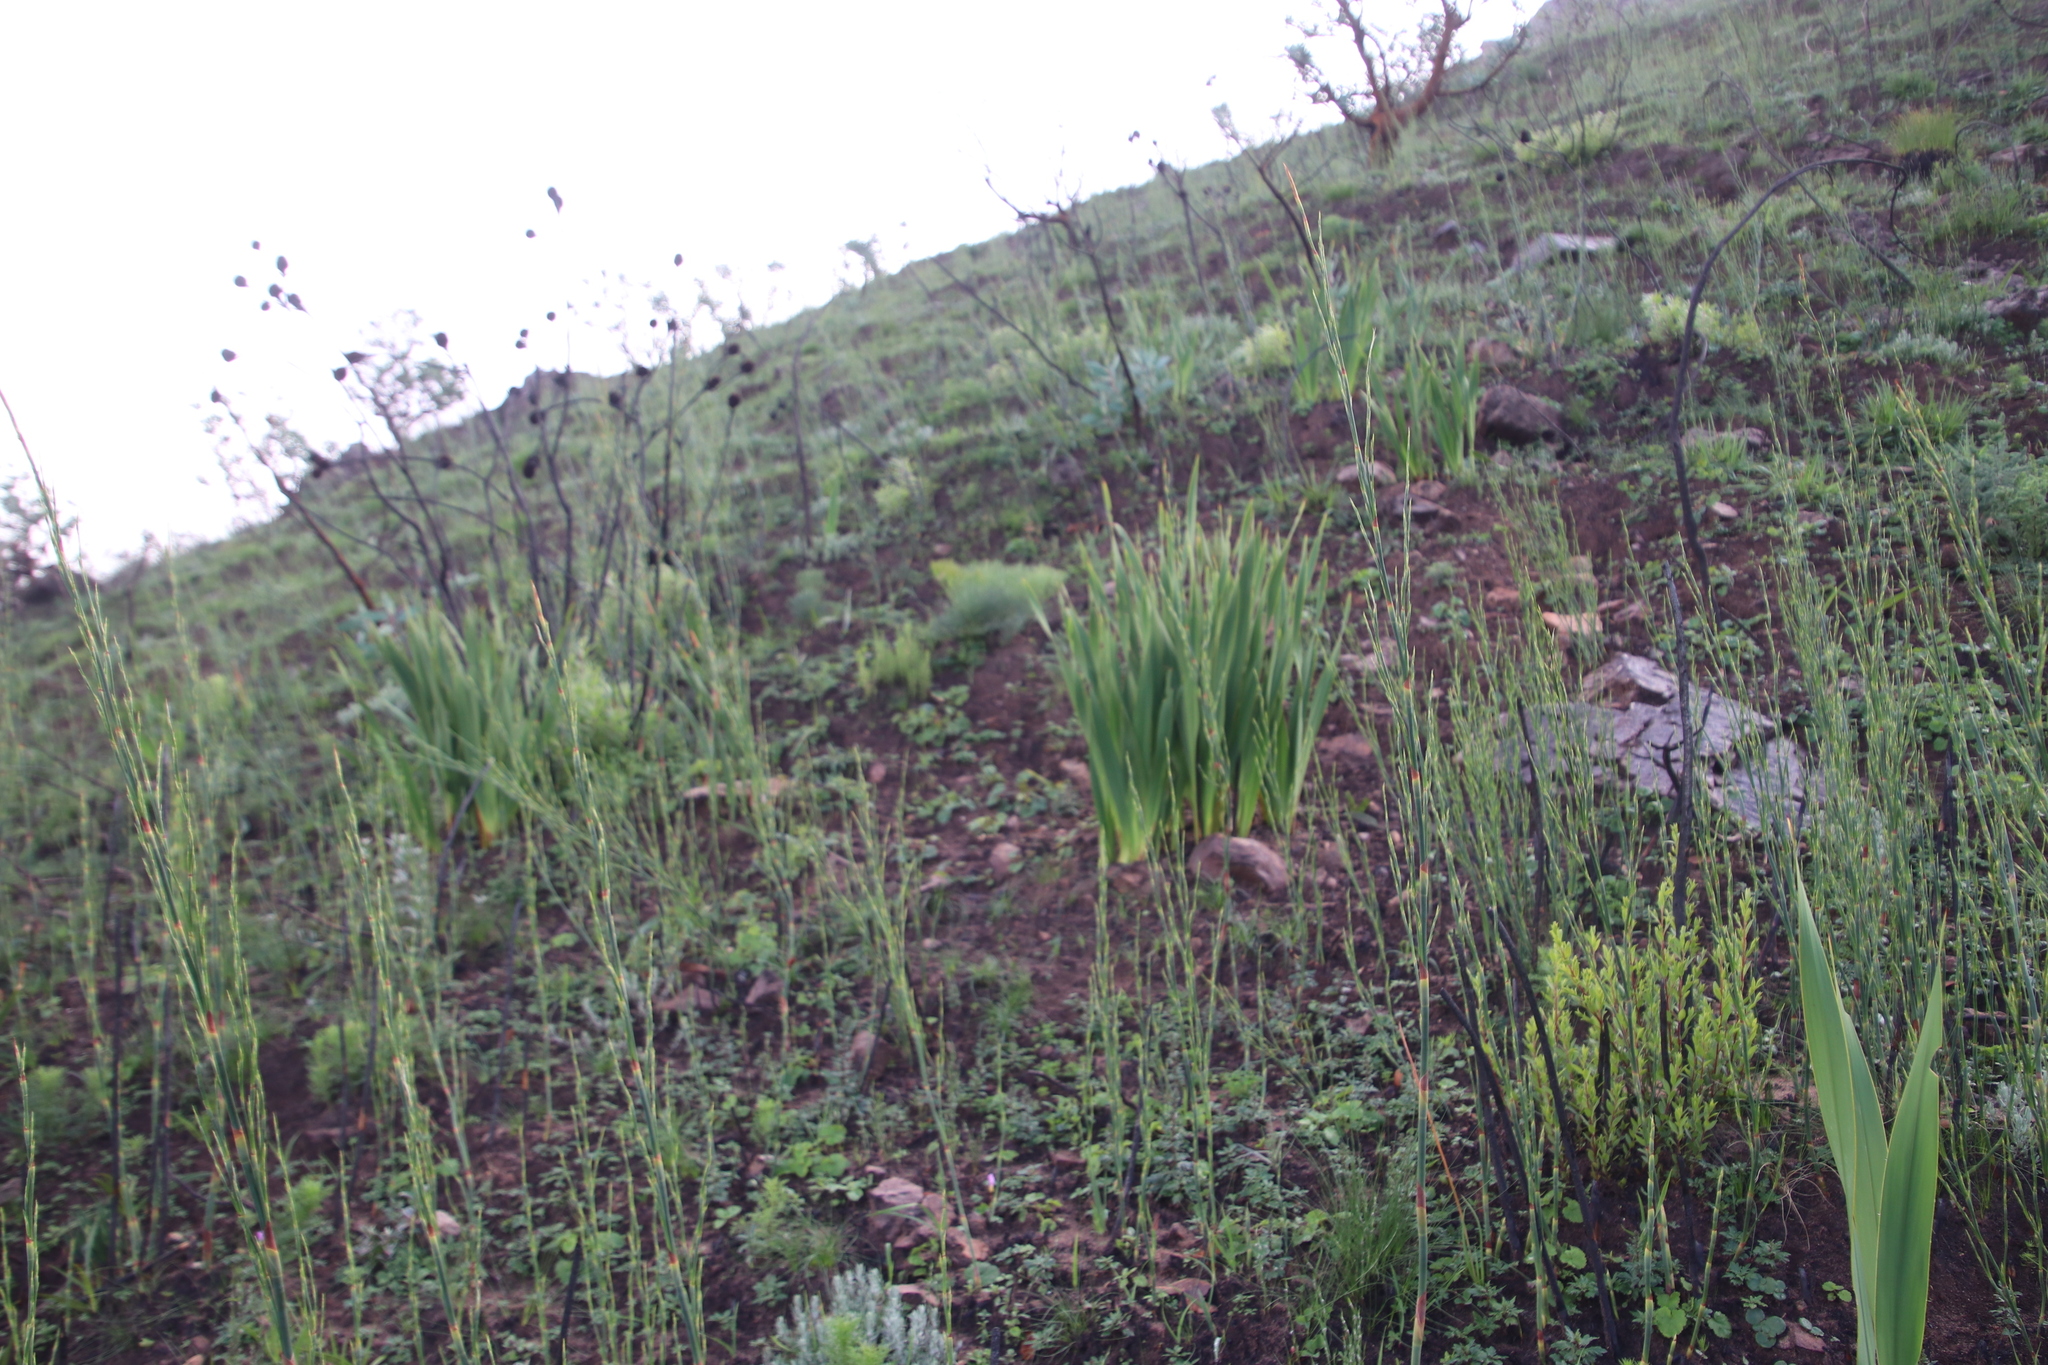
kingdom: Plantae
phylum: Tracheophyta
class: Magnoliopsida
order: Apiales
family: Apiaceae
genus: Nanobubon
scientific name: Nanobubon strictum
